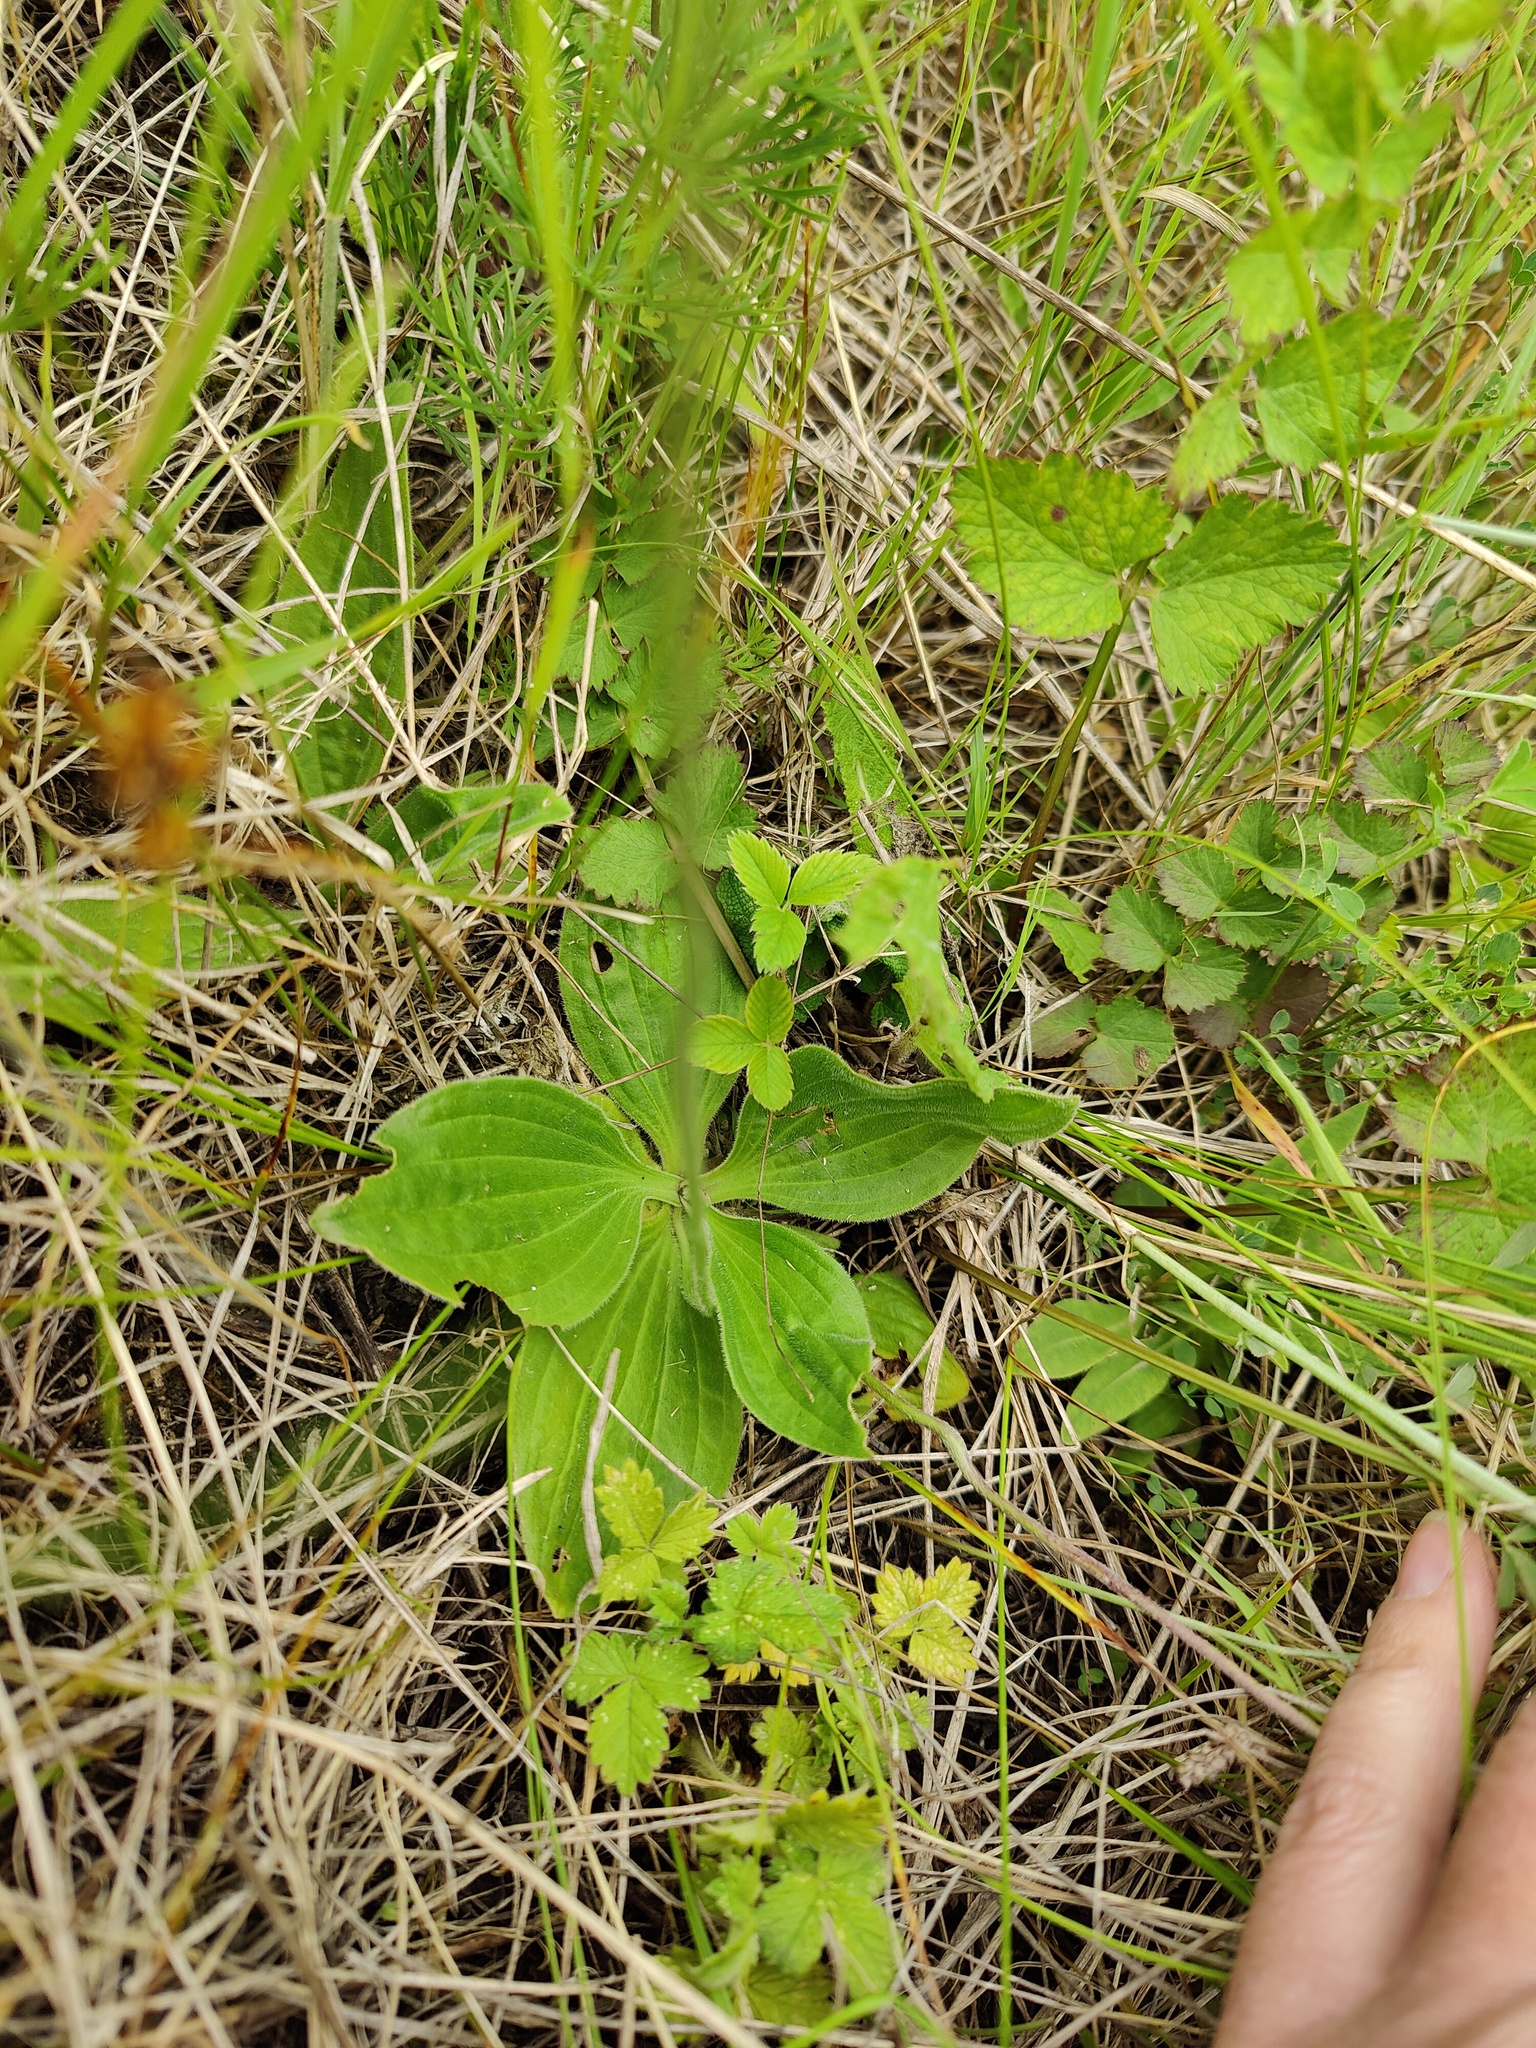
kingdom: Plantae
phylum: Tracheophyta
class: Magnoliopsida
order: Lamiales
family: Plantaginaceae
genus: Plantago
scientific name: Plantago media
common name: Hoary plantain
